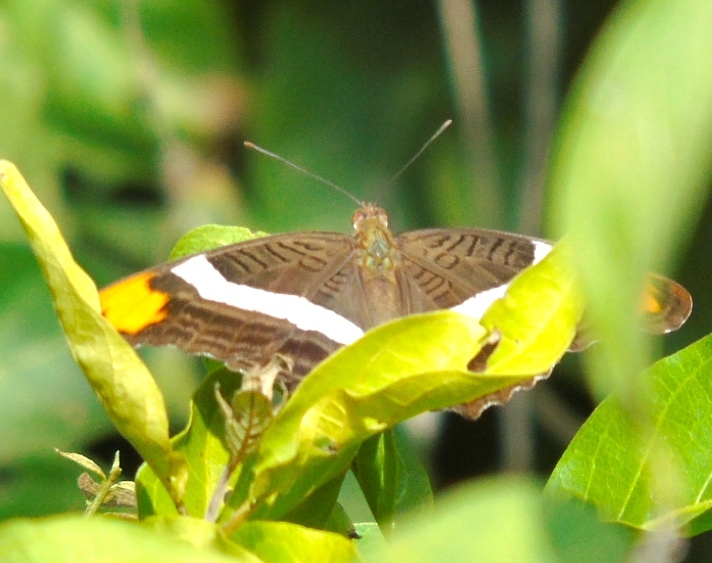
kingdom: Animalia
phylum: Arthropoda
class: Insecta
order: Lepidoptera
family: Nymphalidae
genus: Limenitis
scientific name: Limenitis fessonia
